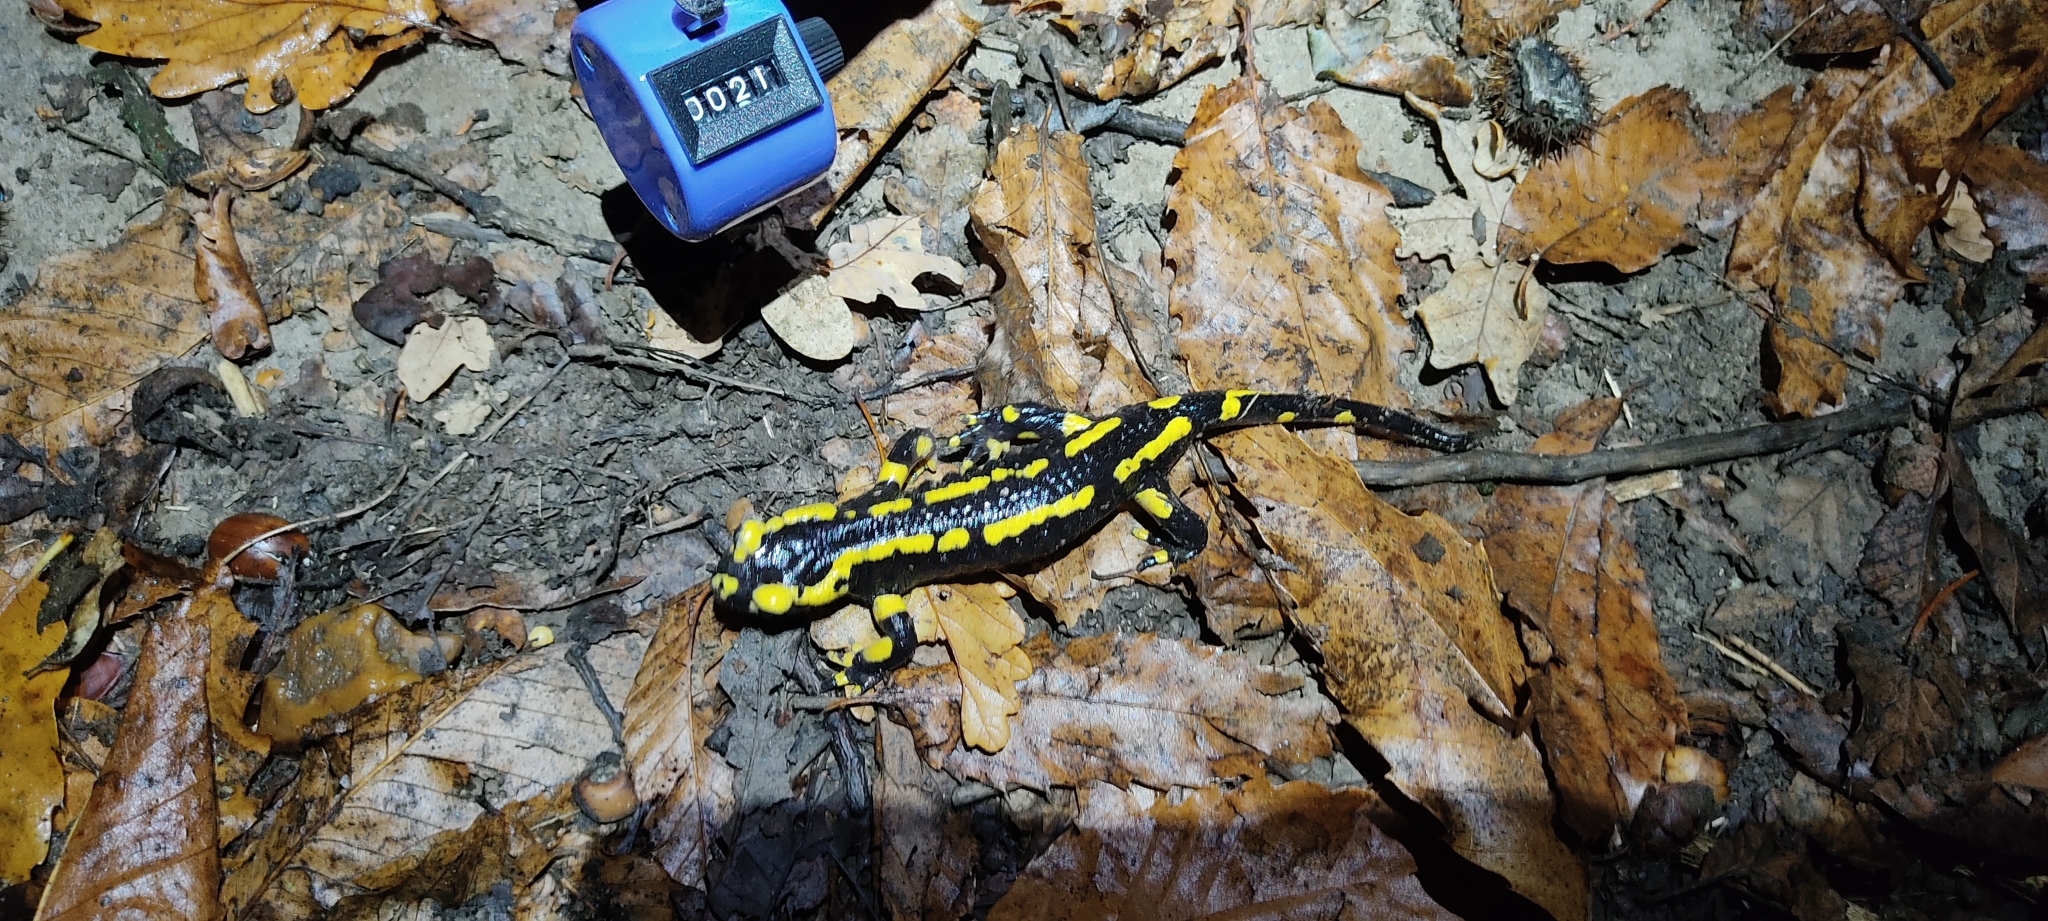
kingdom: Animalia
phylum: Chordata
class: Amphibia
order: Caudata
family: Salamandridae
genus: Salamandra
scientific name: Salamandra salamandra
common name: Fire salamander
